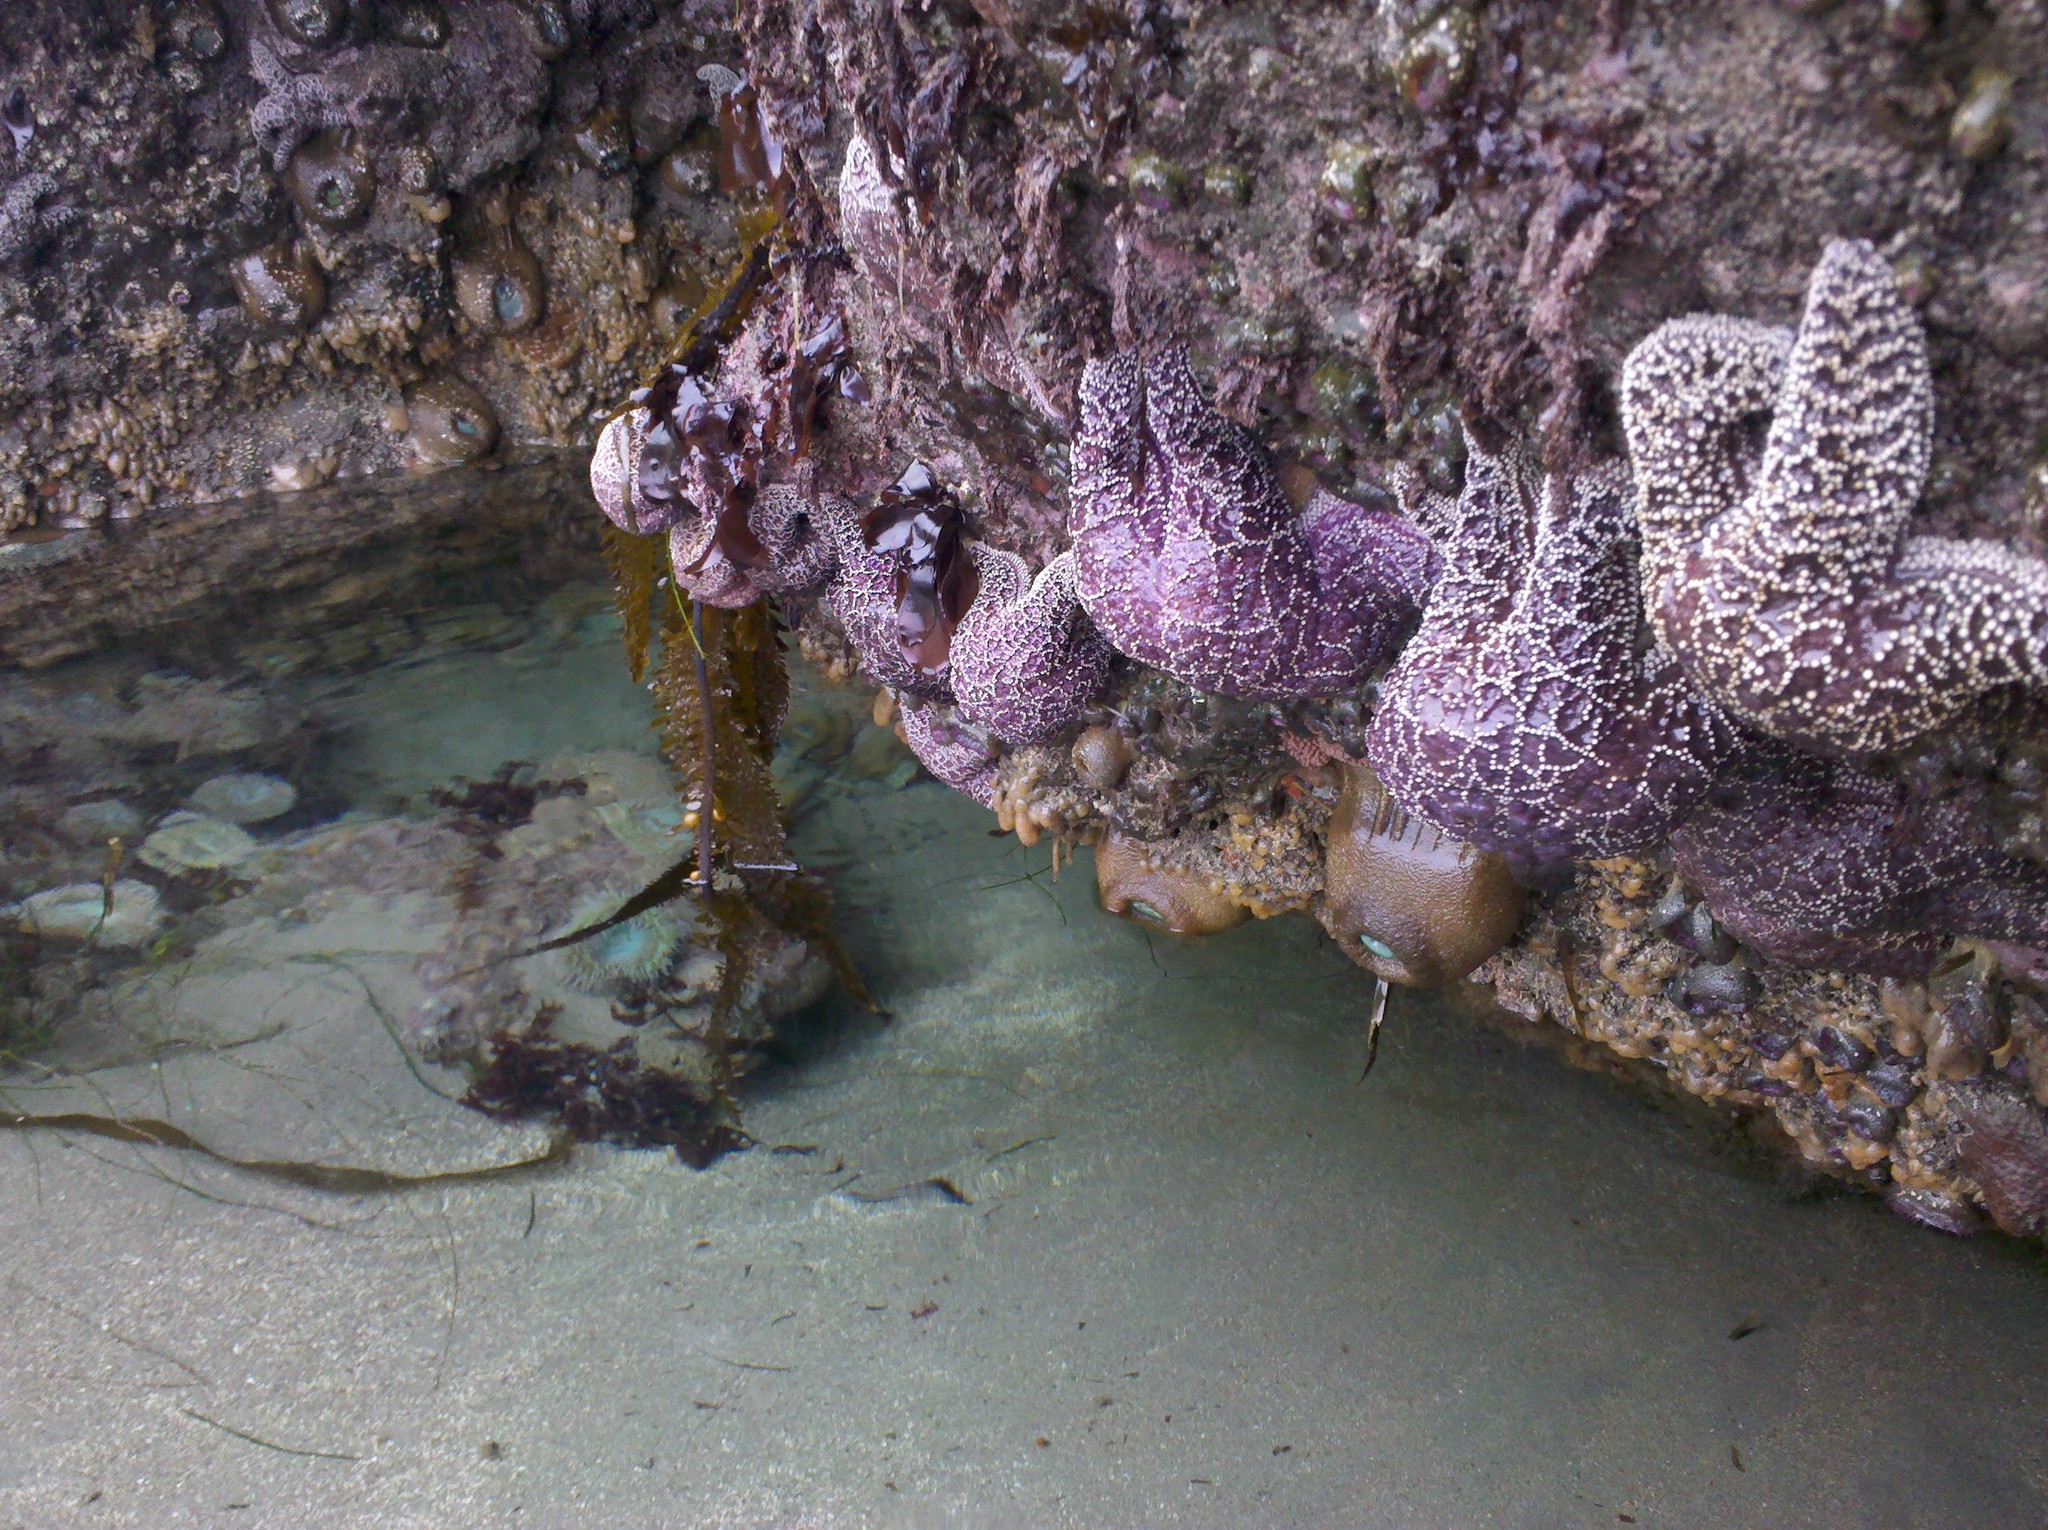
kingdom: Animalia
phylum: Echinodermata
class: Asteroidea
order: Forcipulatida
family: Asteriidae
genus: Pisaster
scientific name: Pisaster ochraceus
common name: Ochre stars
